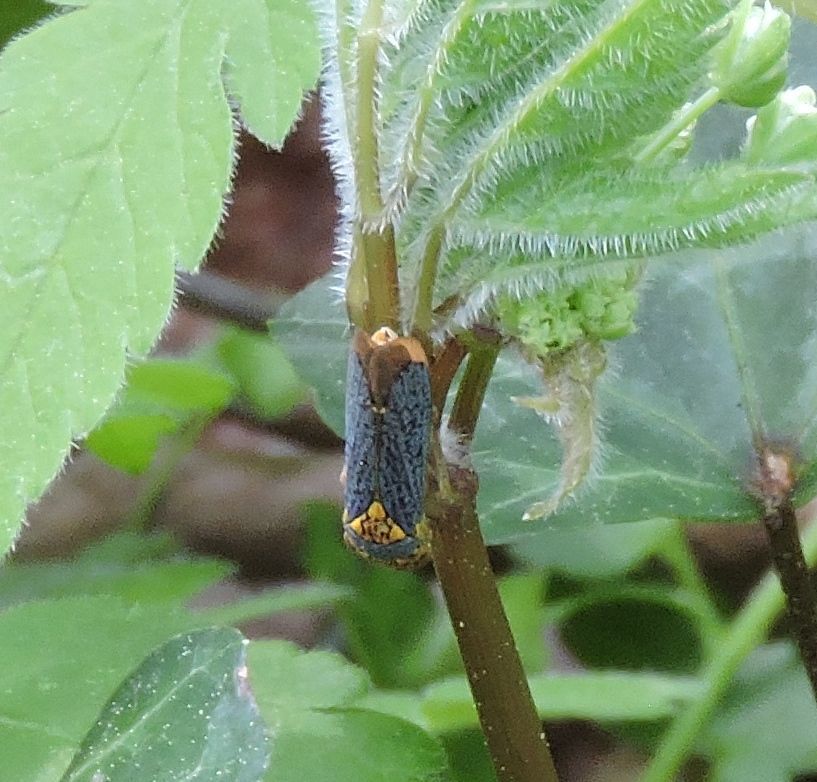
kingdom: Animalia
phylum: Arthropoda
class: Insecta
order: Hemiptera
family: Cicadellidae
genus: Oncometopia
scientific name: Oncometopia orbona
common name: Broad-headed sharpshooter
